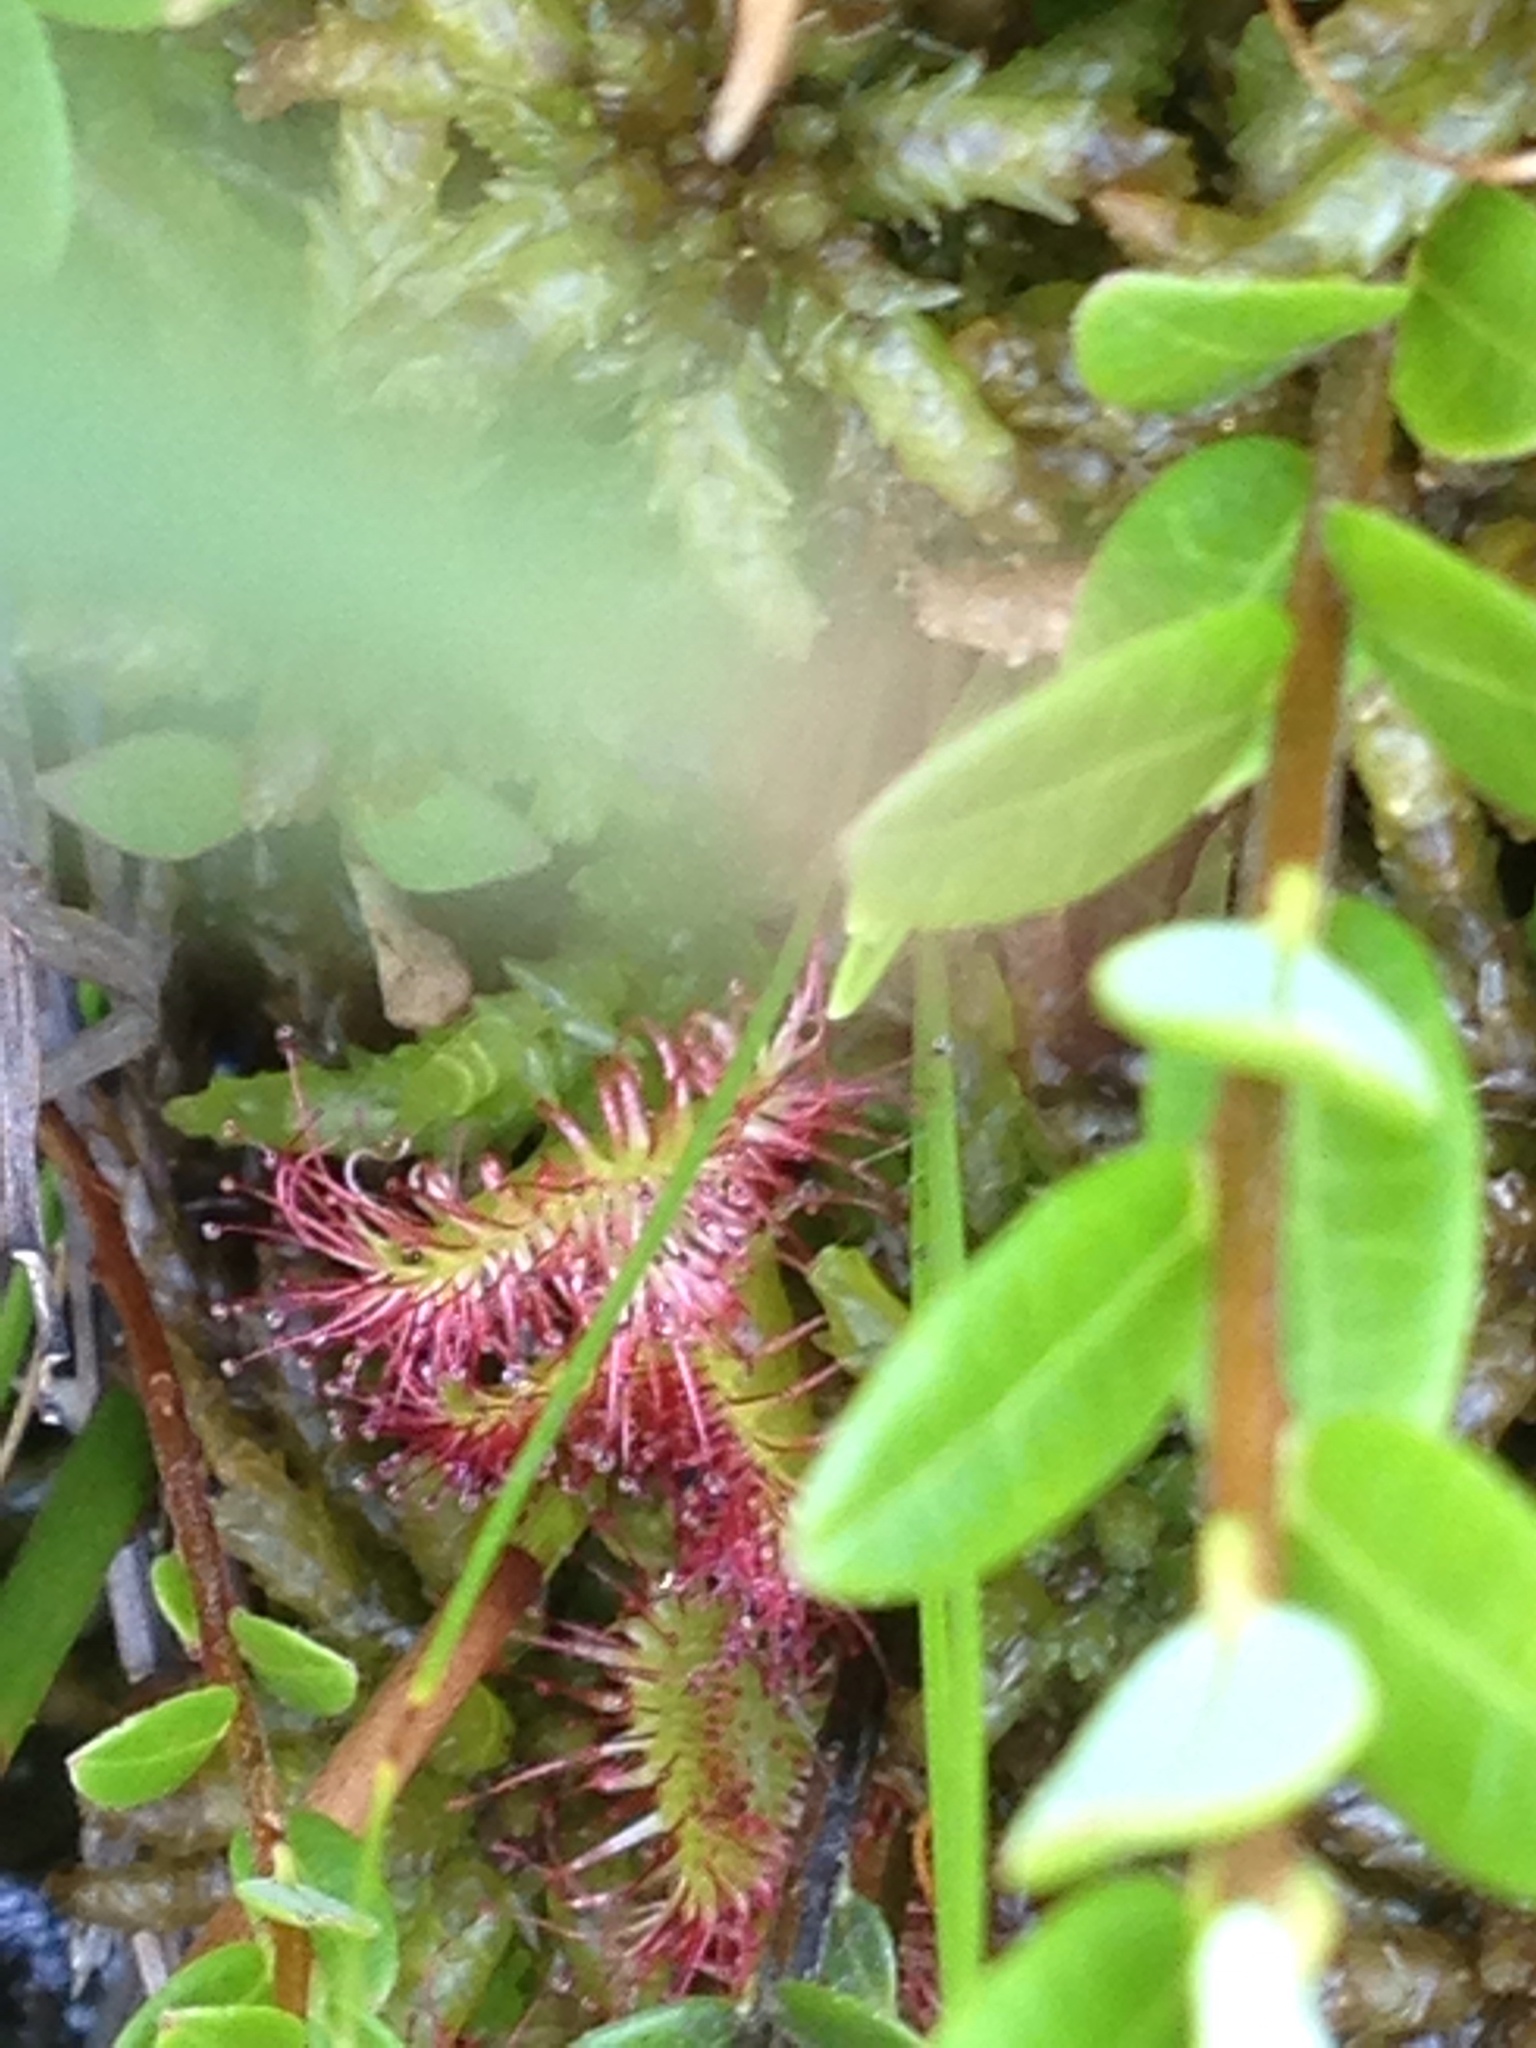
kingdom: Plantae
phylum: Tracheophyta
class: Magnoliopsida
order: Caryophyllales
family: Droseraceae
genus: Drosera
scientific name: Drosera rotundifolia
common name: Round-leaved sundew
